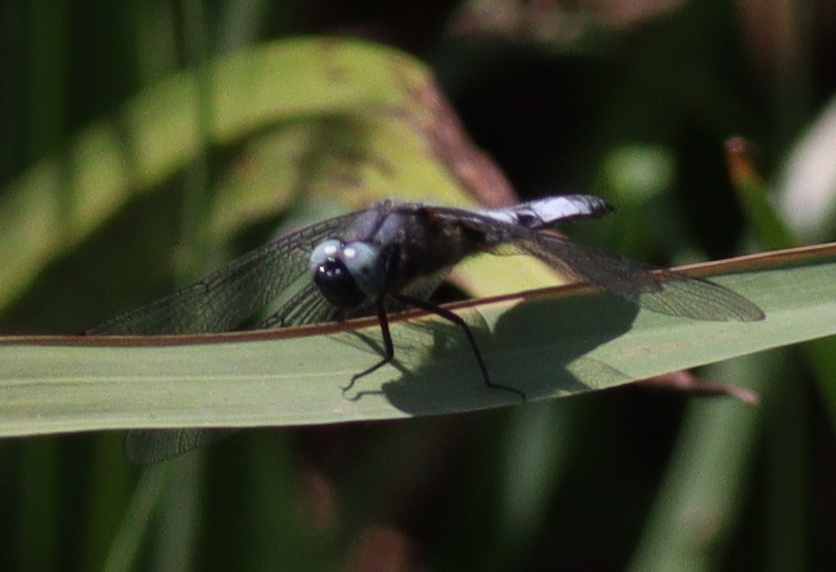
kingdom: Animalia
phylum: Arthropoda
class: Insecta
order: Odonata
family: Libellulidae
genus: Libellula
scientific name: Libellula fulva
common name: Blue chaser
